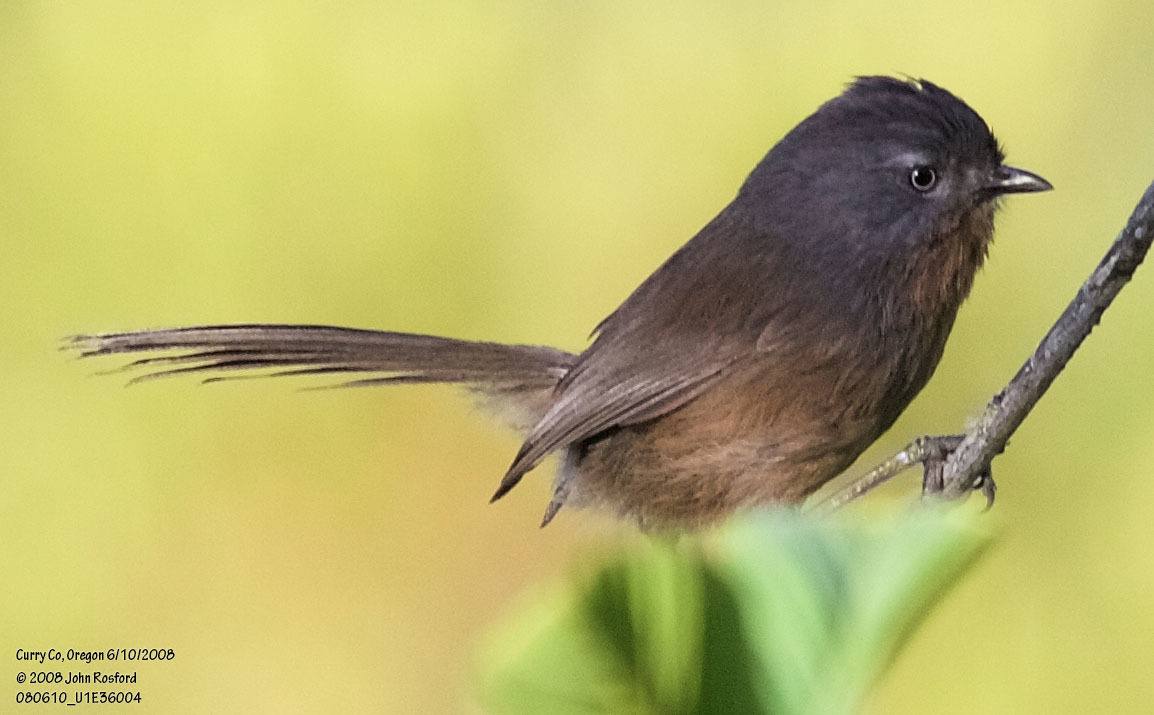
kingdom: Animalia
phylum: Chordata
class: Aves
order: Passeriformes
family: Sylviidae
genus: Chamaea
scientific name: Chamaea fasciata
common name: Wrentit
